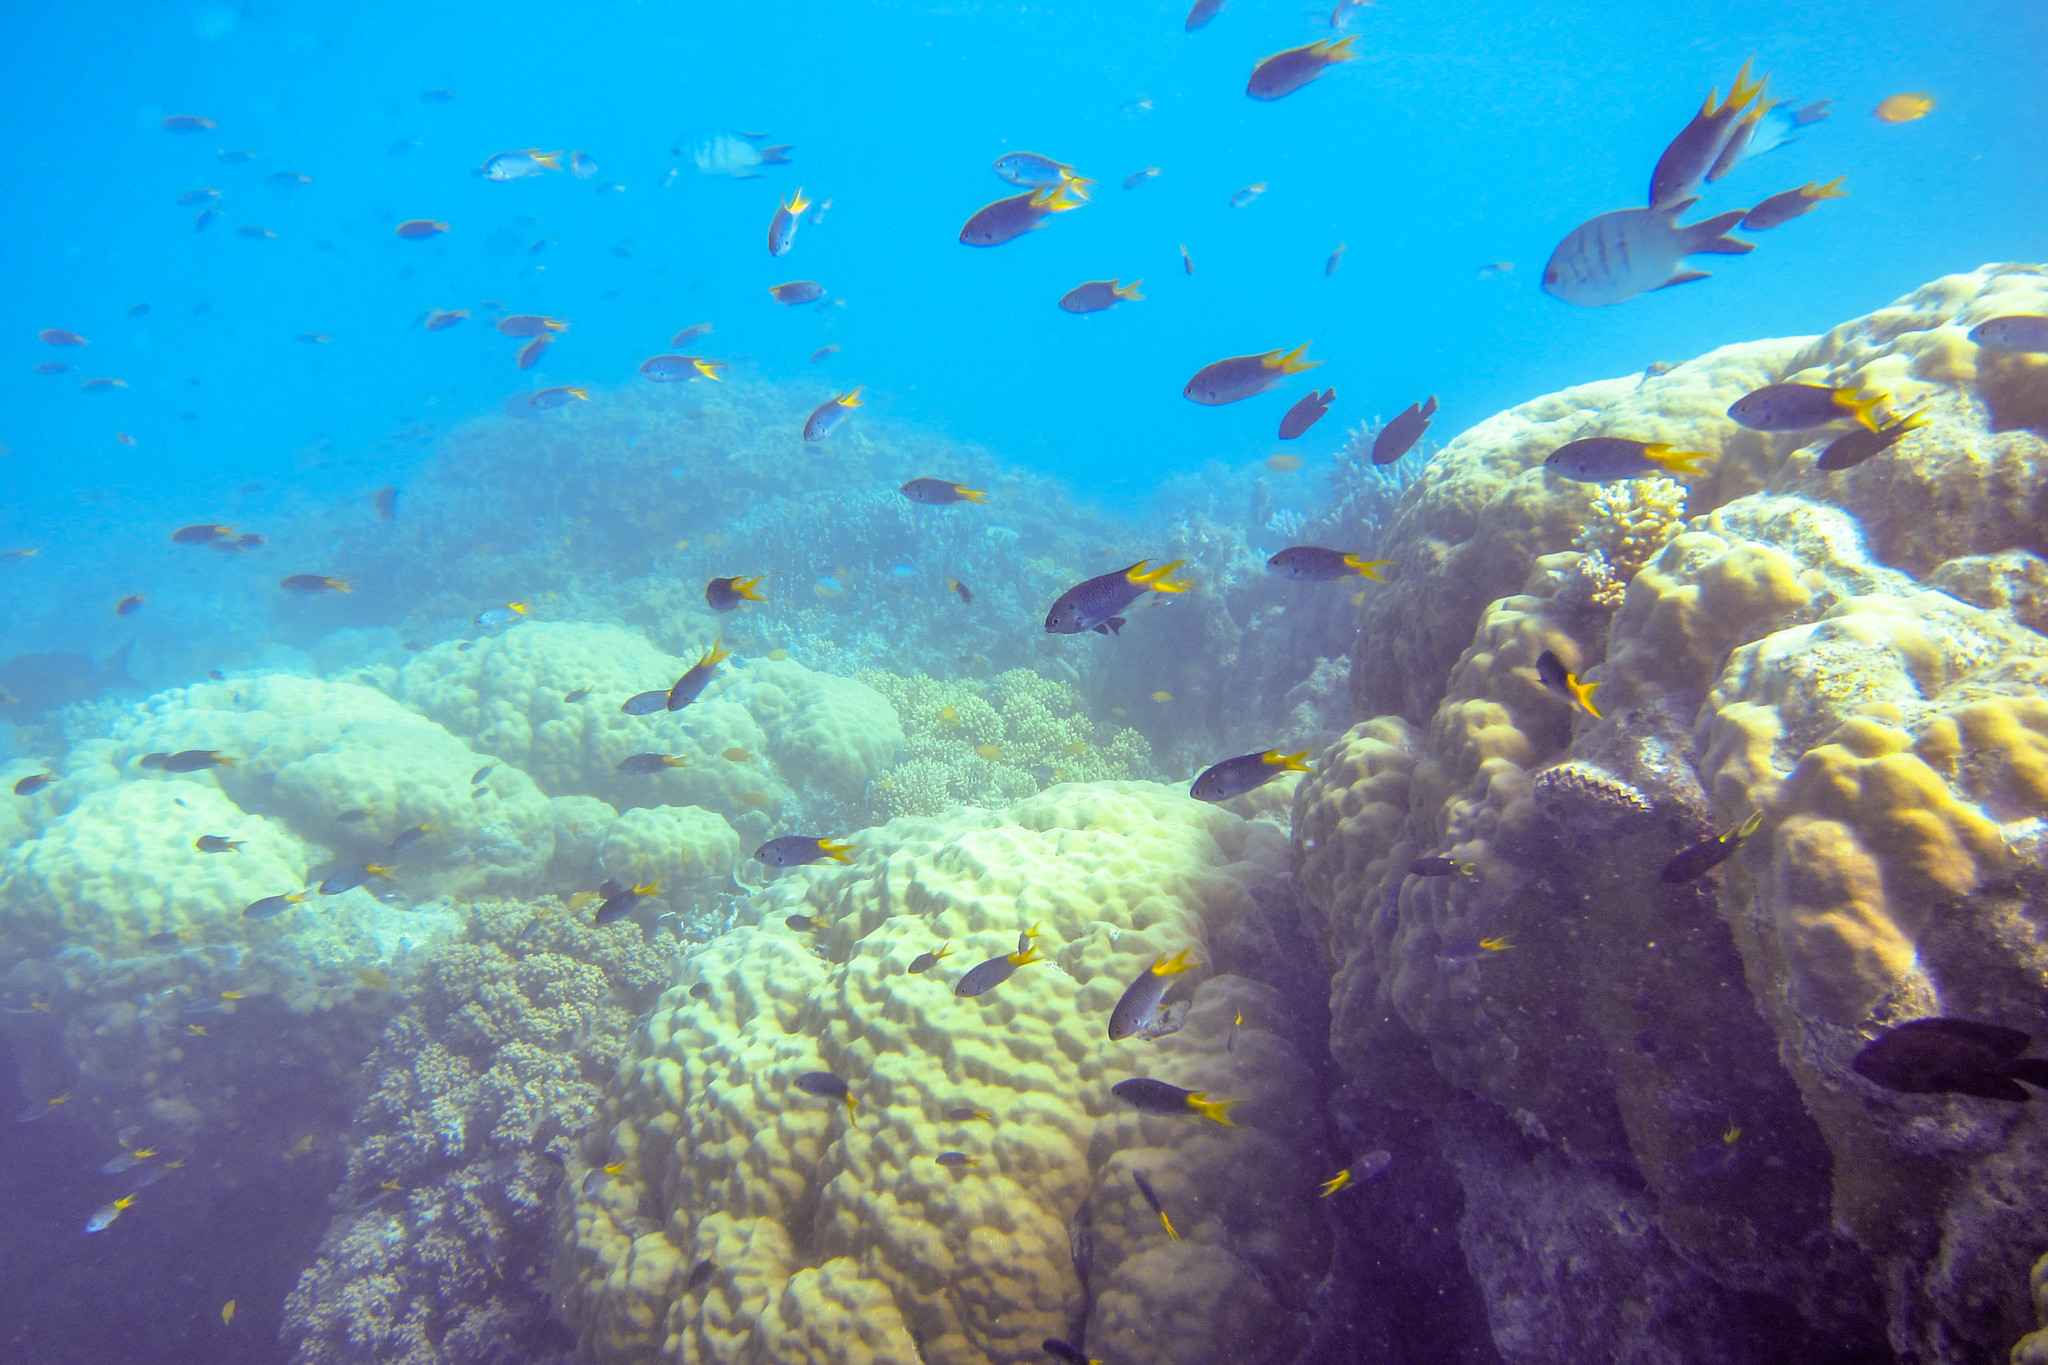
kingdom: Animalia
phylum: Chordata
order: Perciformes
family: Pomacentridae
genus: Pomacentrus
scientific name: Pomacentrus moluccensis
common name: Lemon damsel
